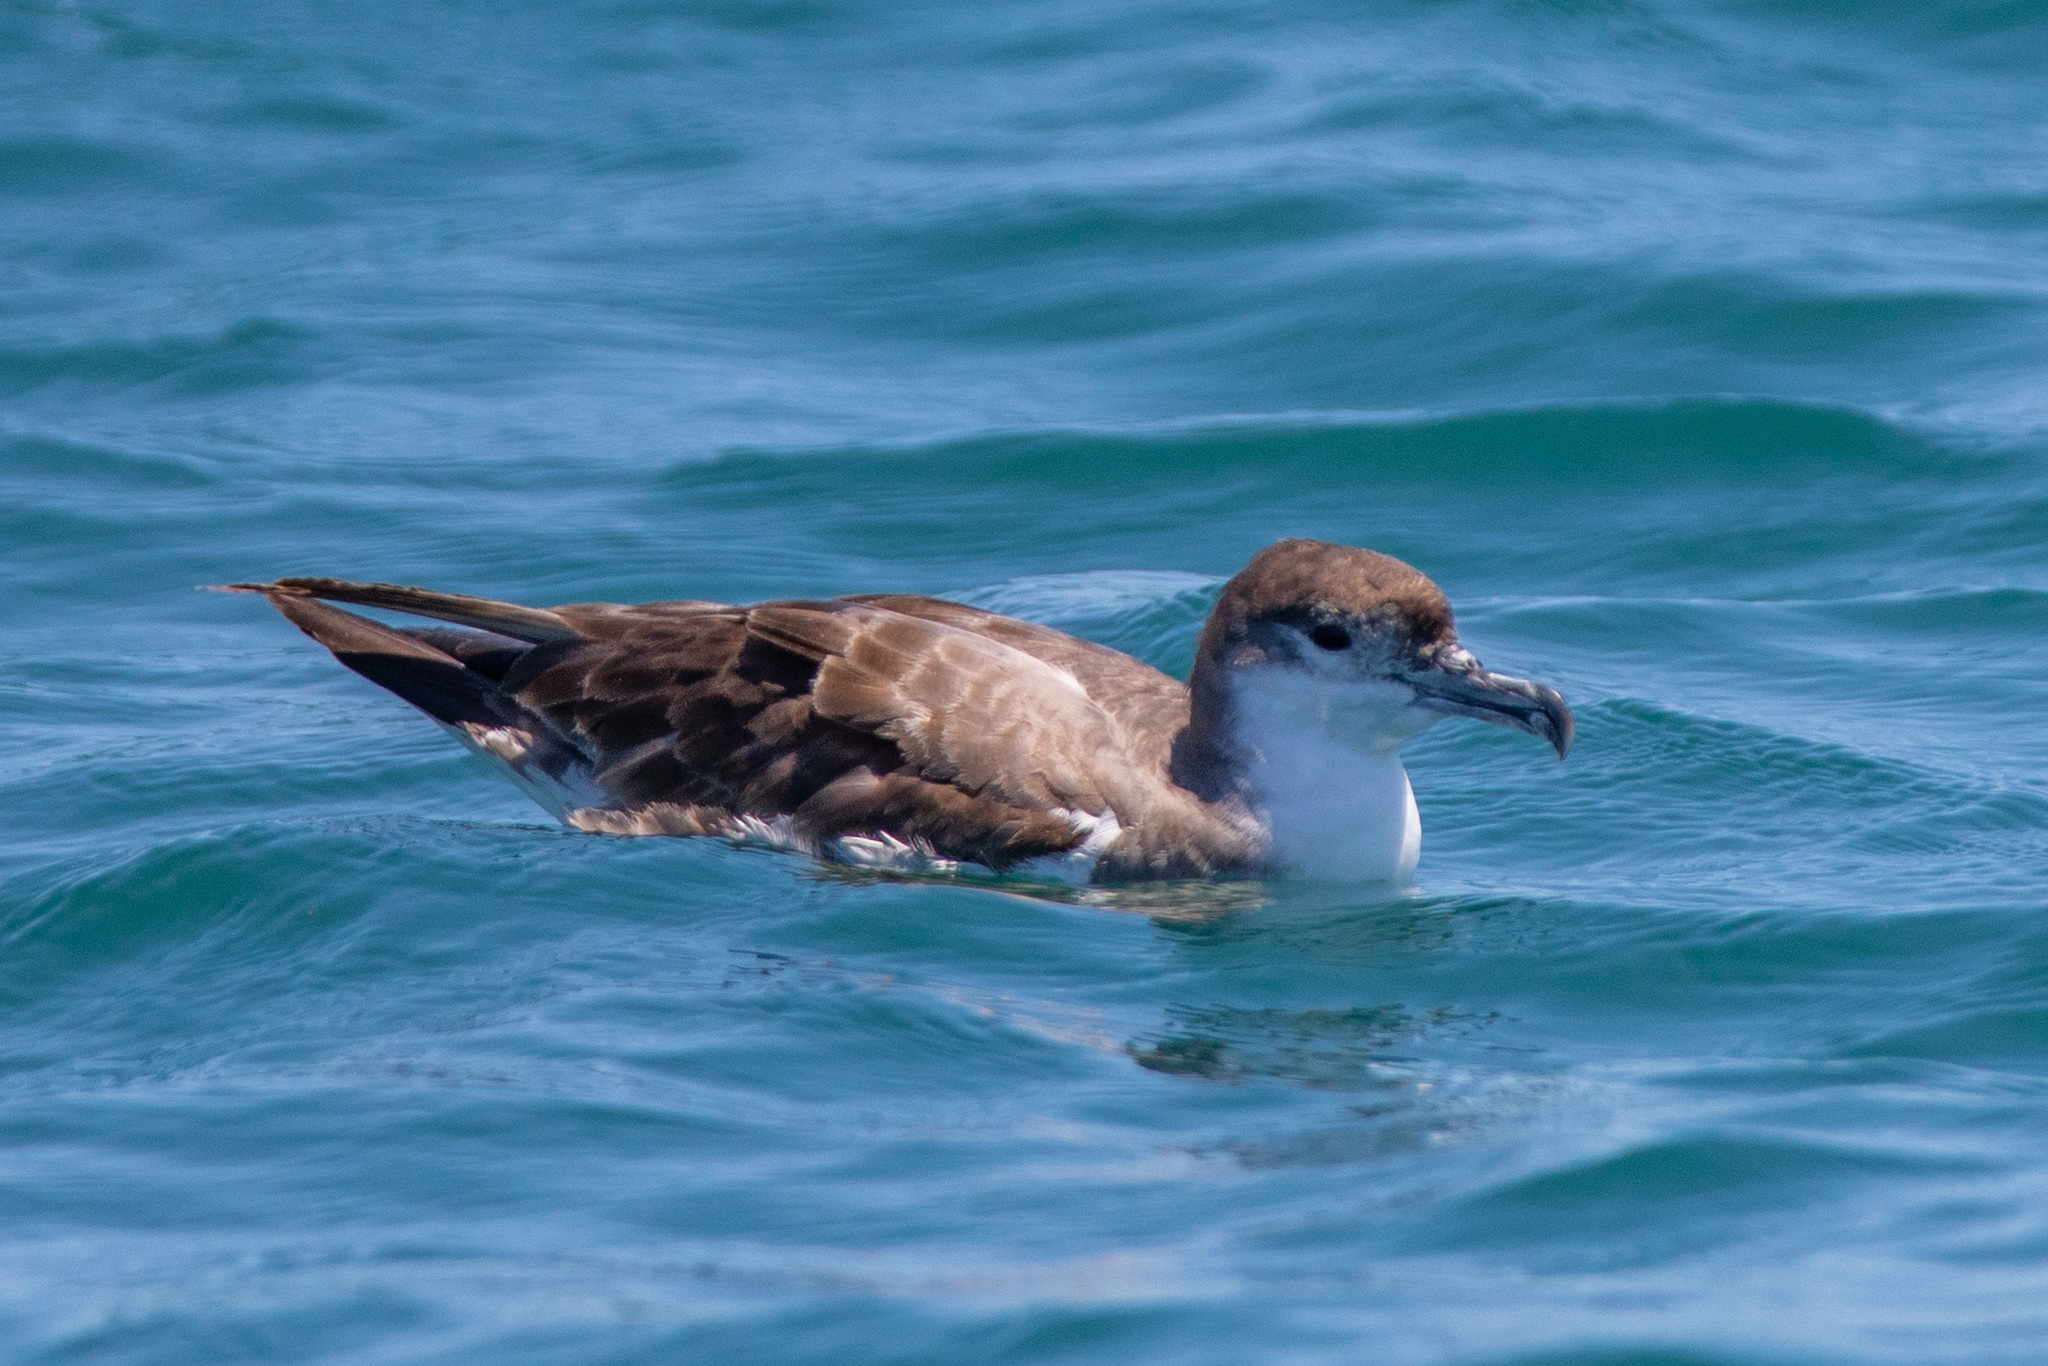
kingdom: Animalia
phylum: Chordata
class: Aves
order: Procellariiformes
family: Procellariidae
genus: Puffinus
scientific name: Puffinus bulleri
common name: Buller's shearwater
